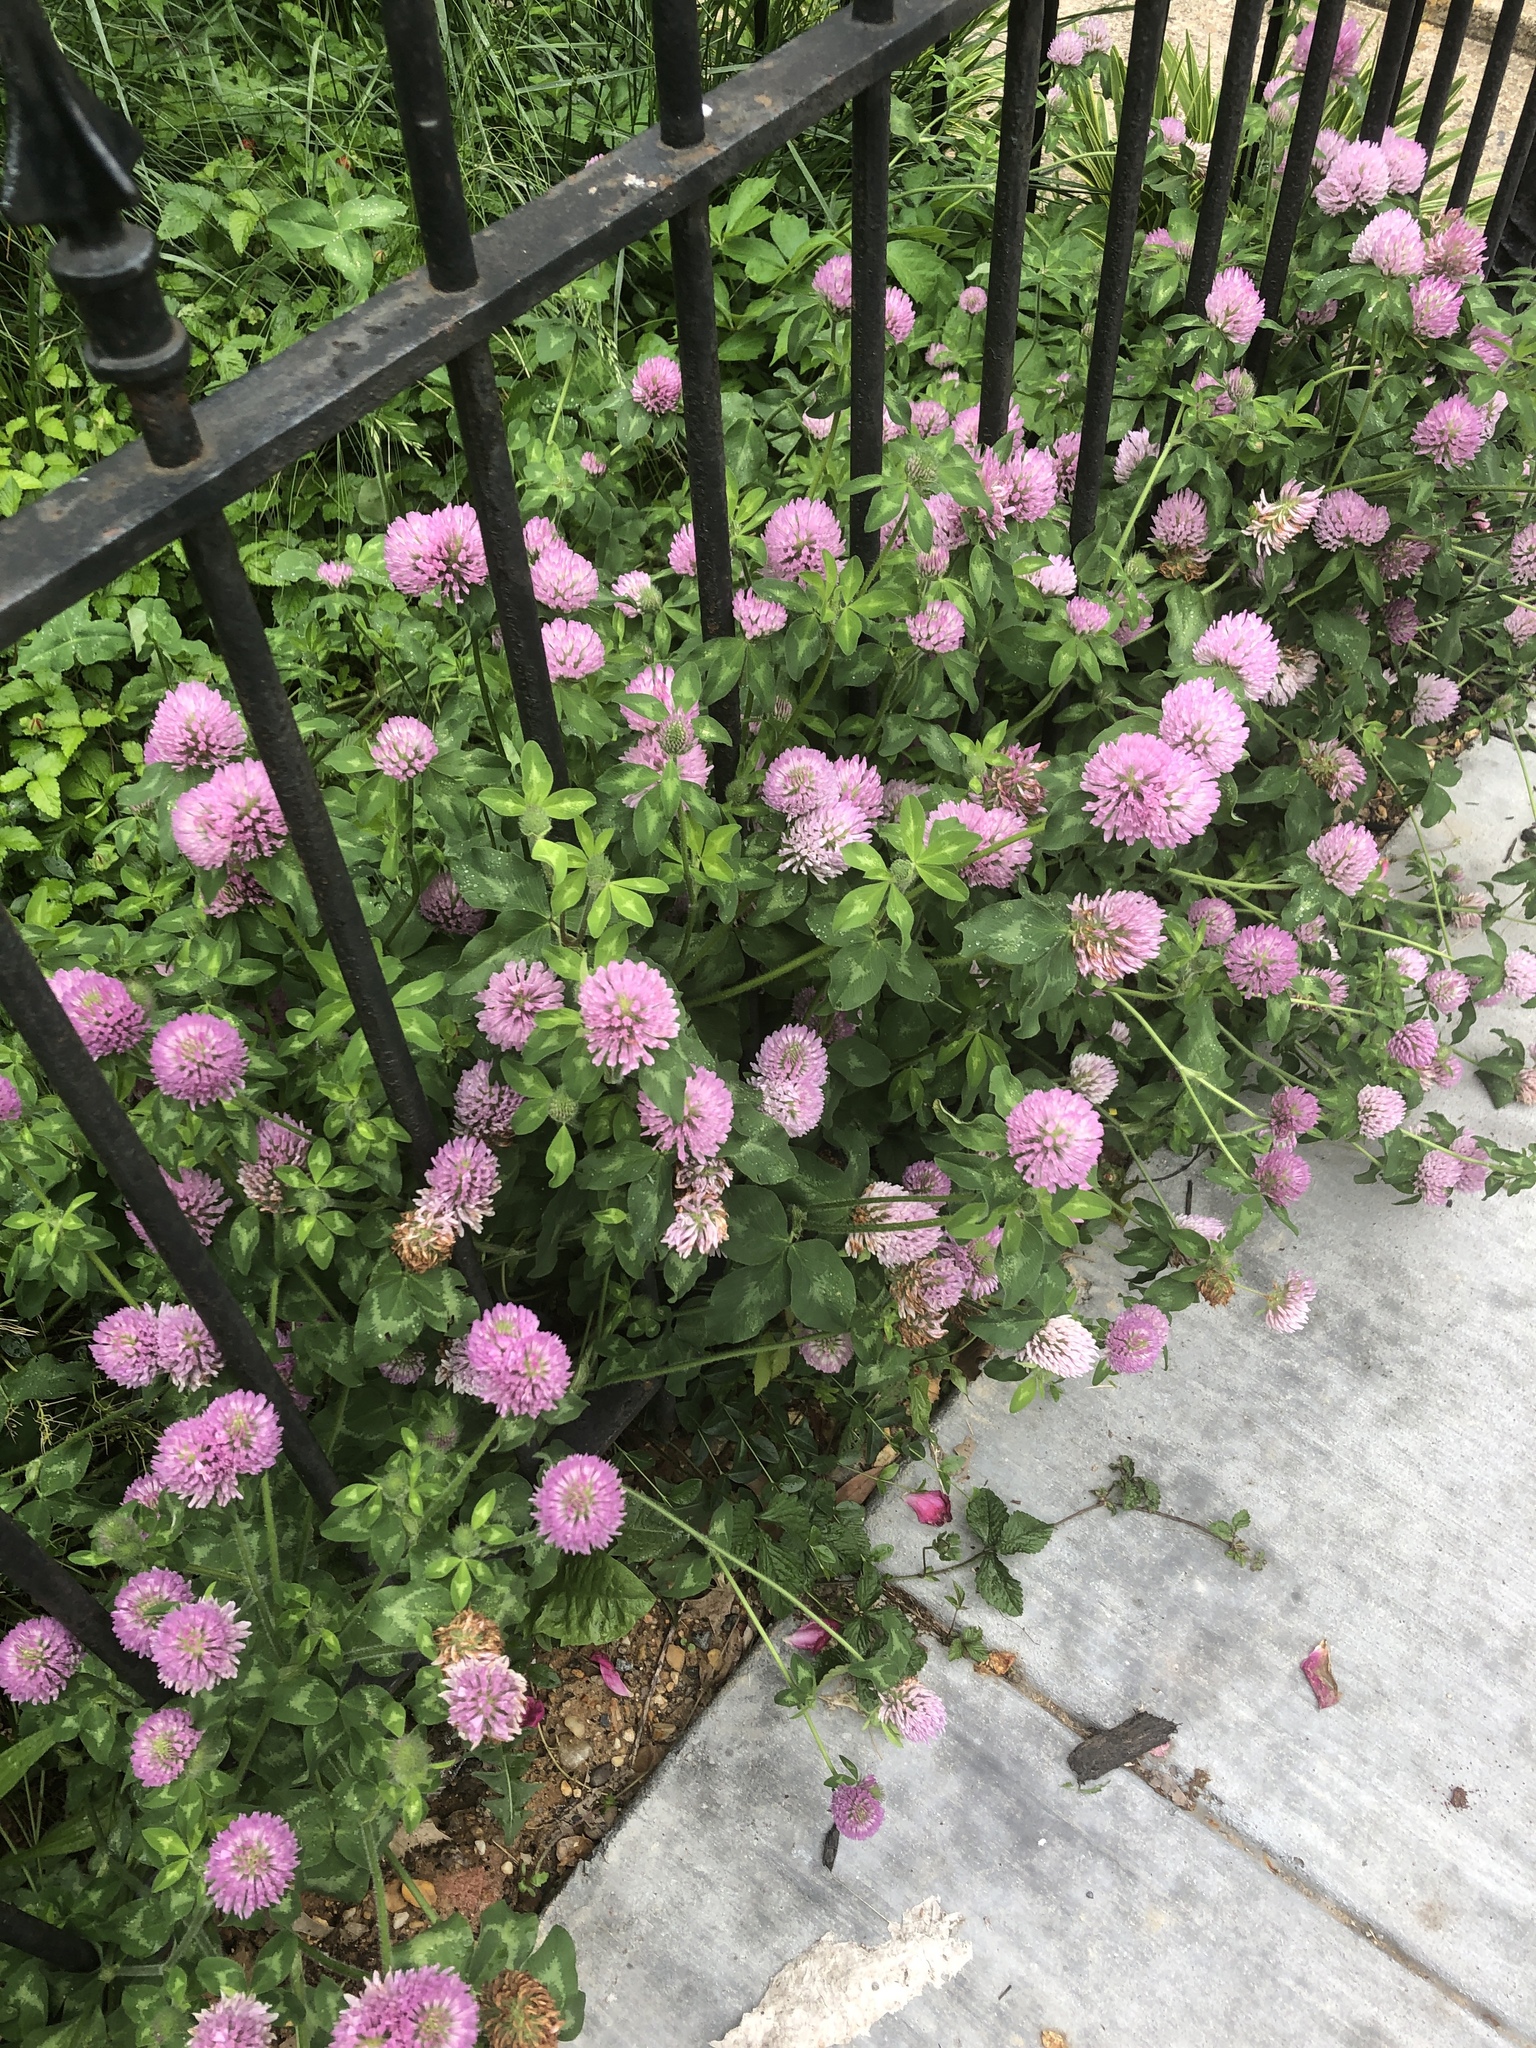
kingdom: Plantae
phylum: Tracheophyta
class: Magnoliopsida
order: Fabales
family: Fabaceae
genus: Trifolium
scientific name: Trifolium pratense
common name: Red clover
